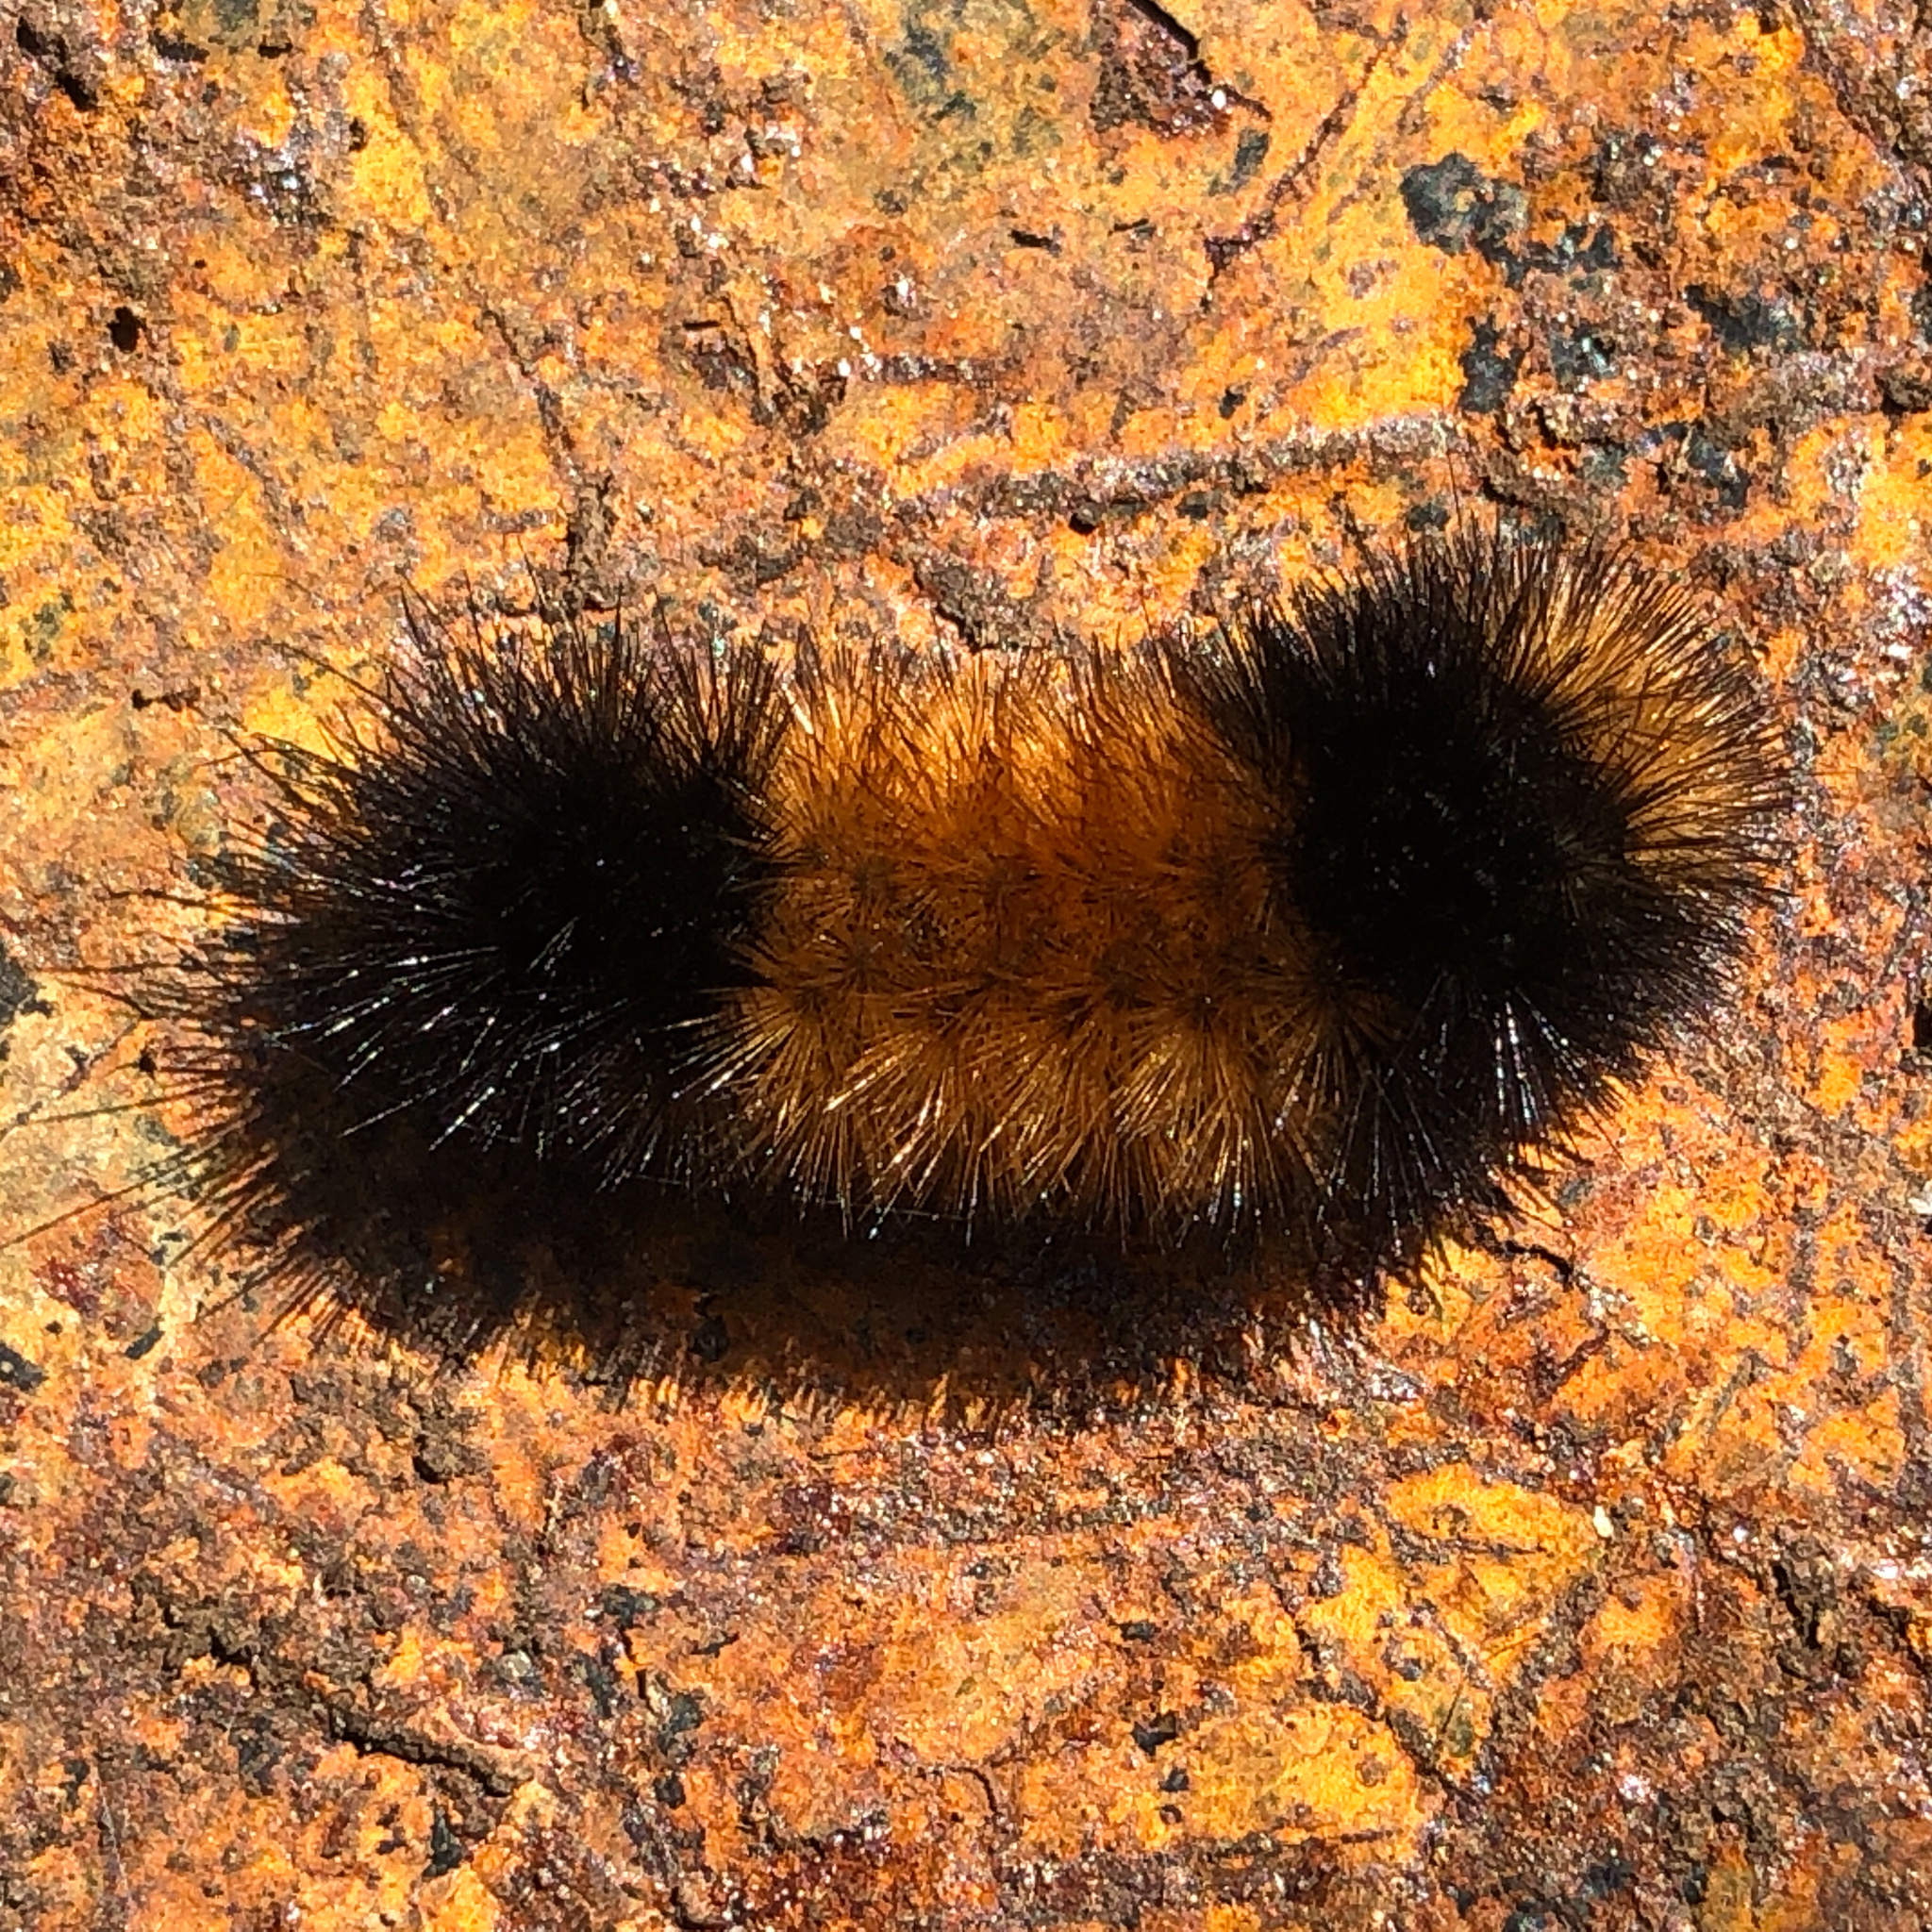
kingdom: Animalia
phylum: Arthropoda
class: Insecta
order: Lepidoptera
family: Erebidae
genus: Pyrrharctia
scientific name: Pyrrharctia isabella
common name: Isabella tiger moth
